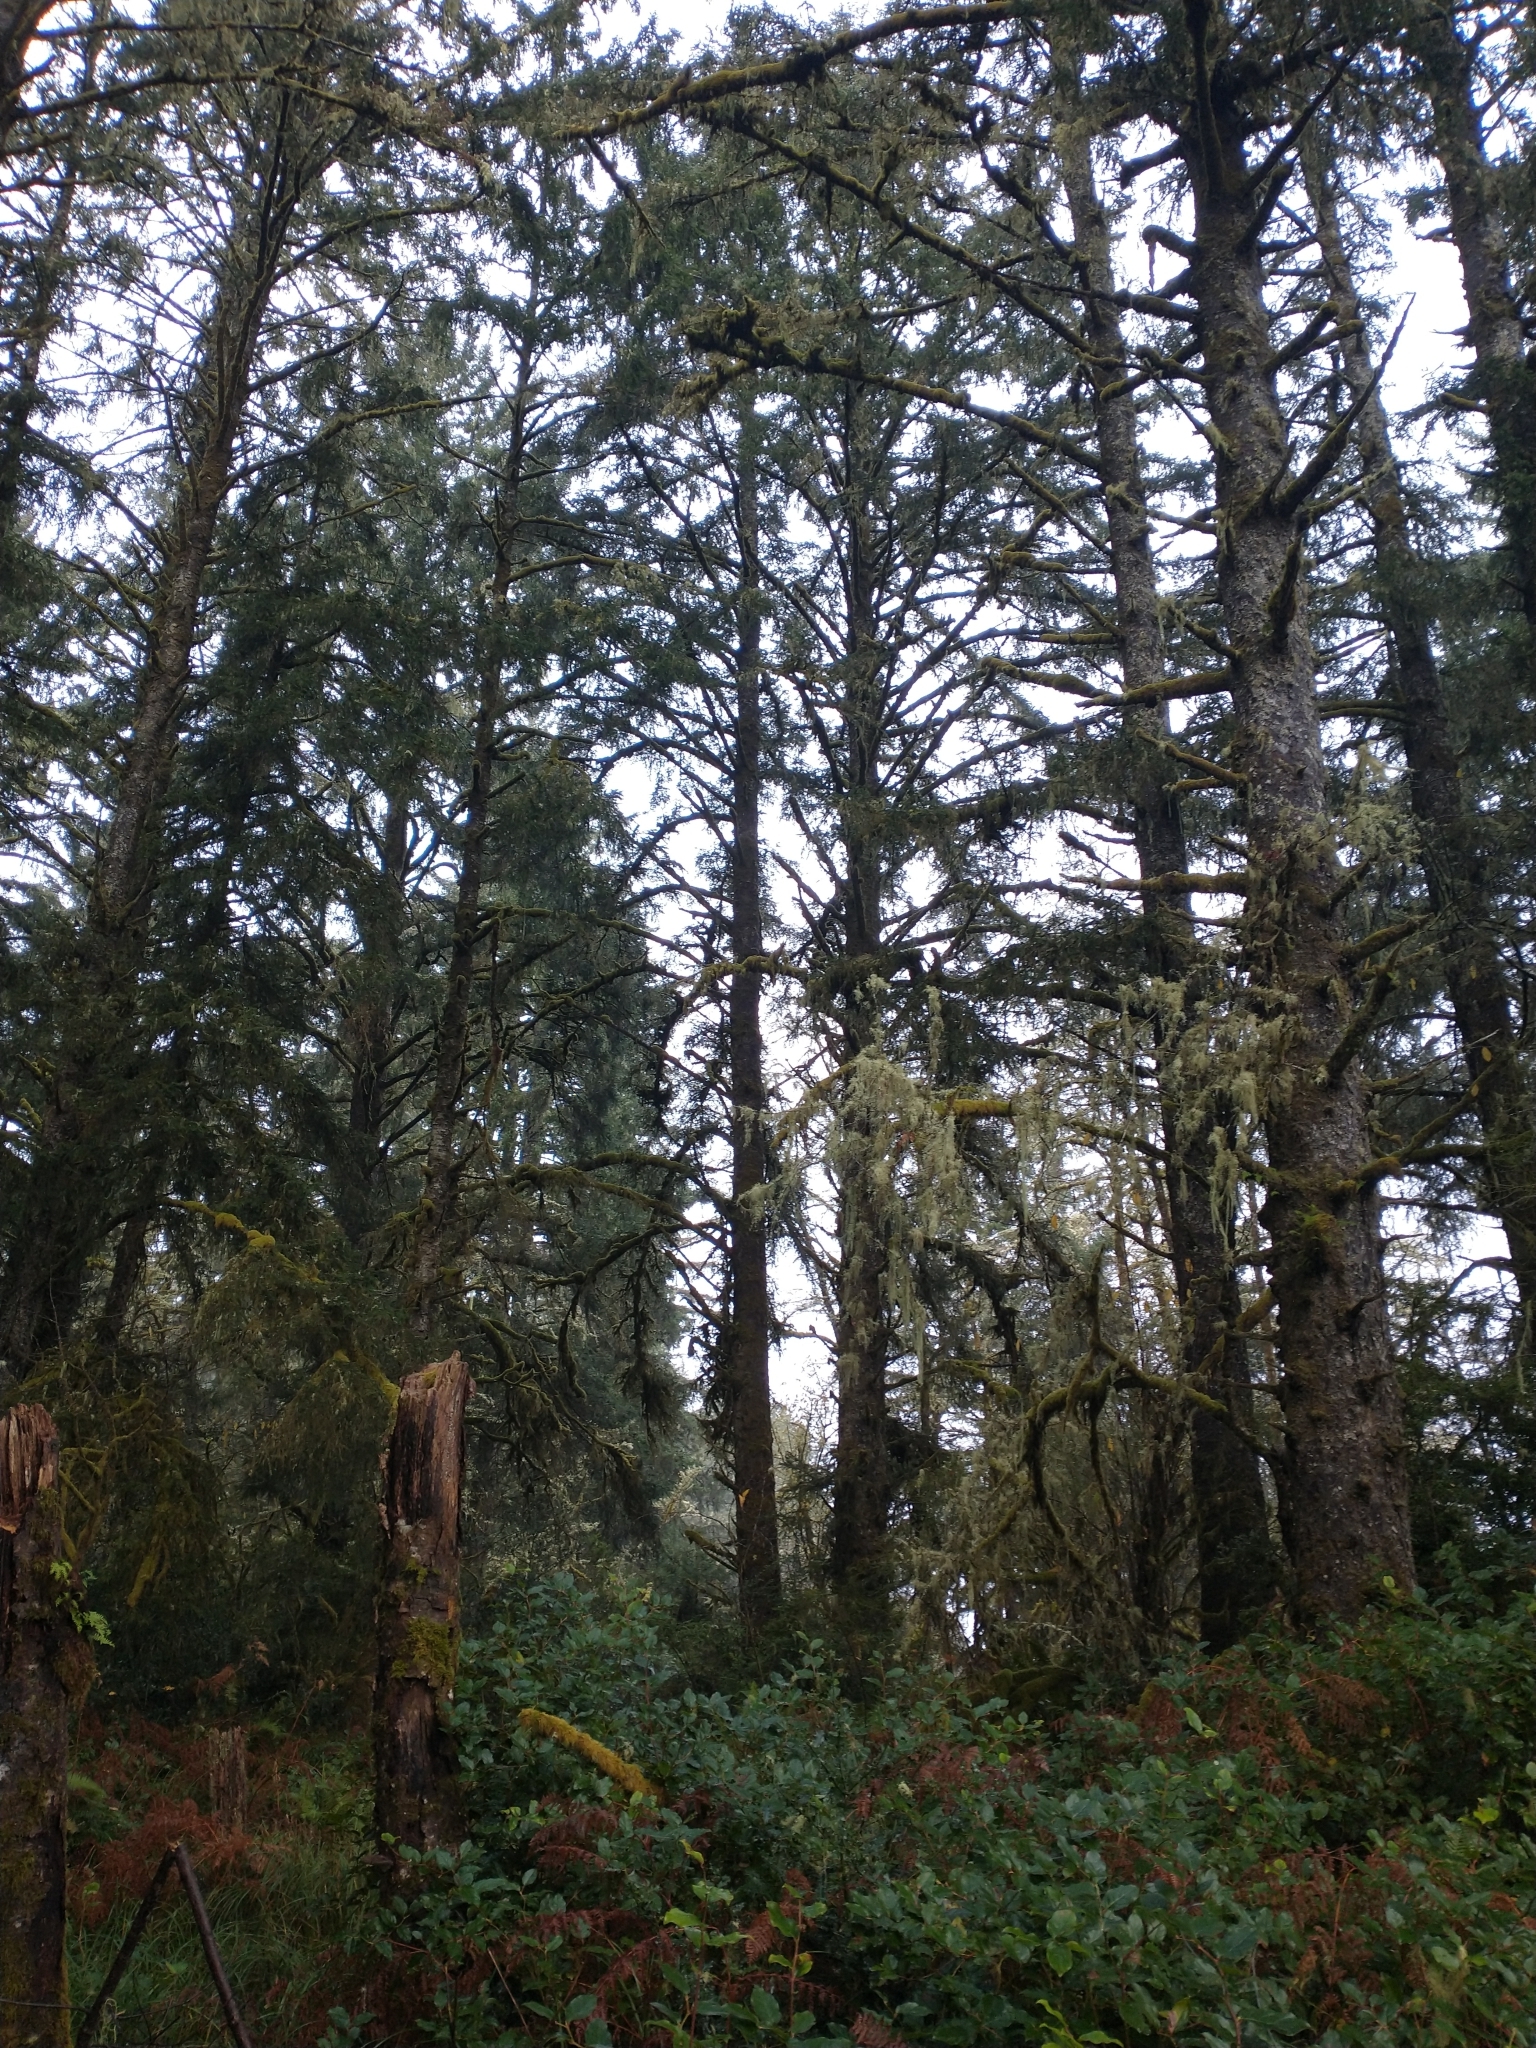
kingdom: Plantae
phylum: Tracheophyta
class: Pinopsida
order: Pinales
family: Pinaceae
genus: Picea
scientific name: Picea sitchensis
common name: Sitka spruce
